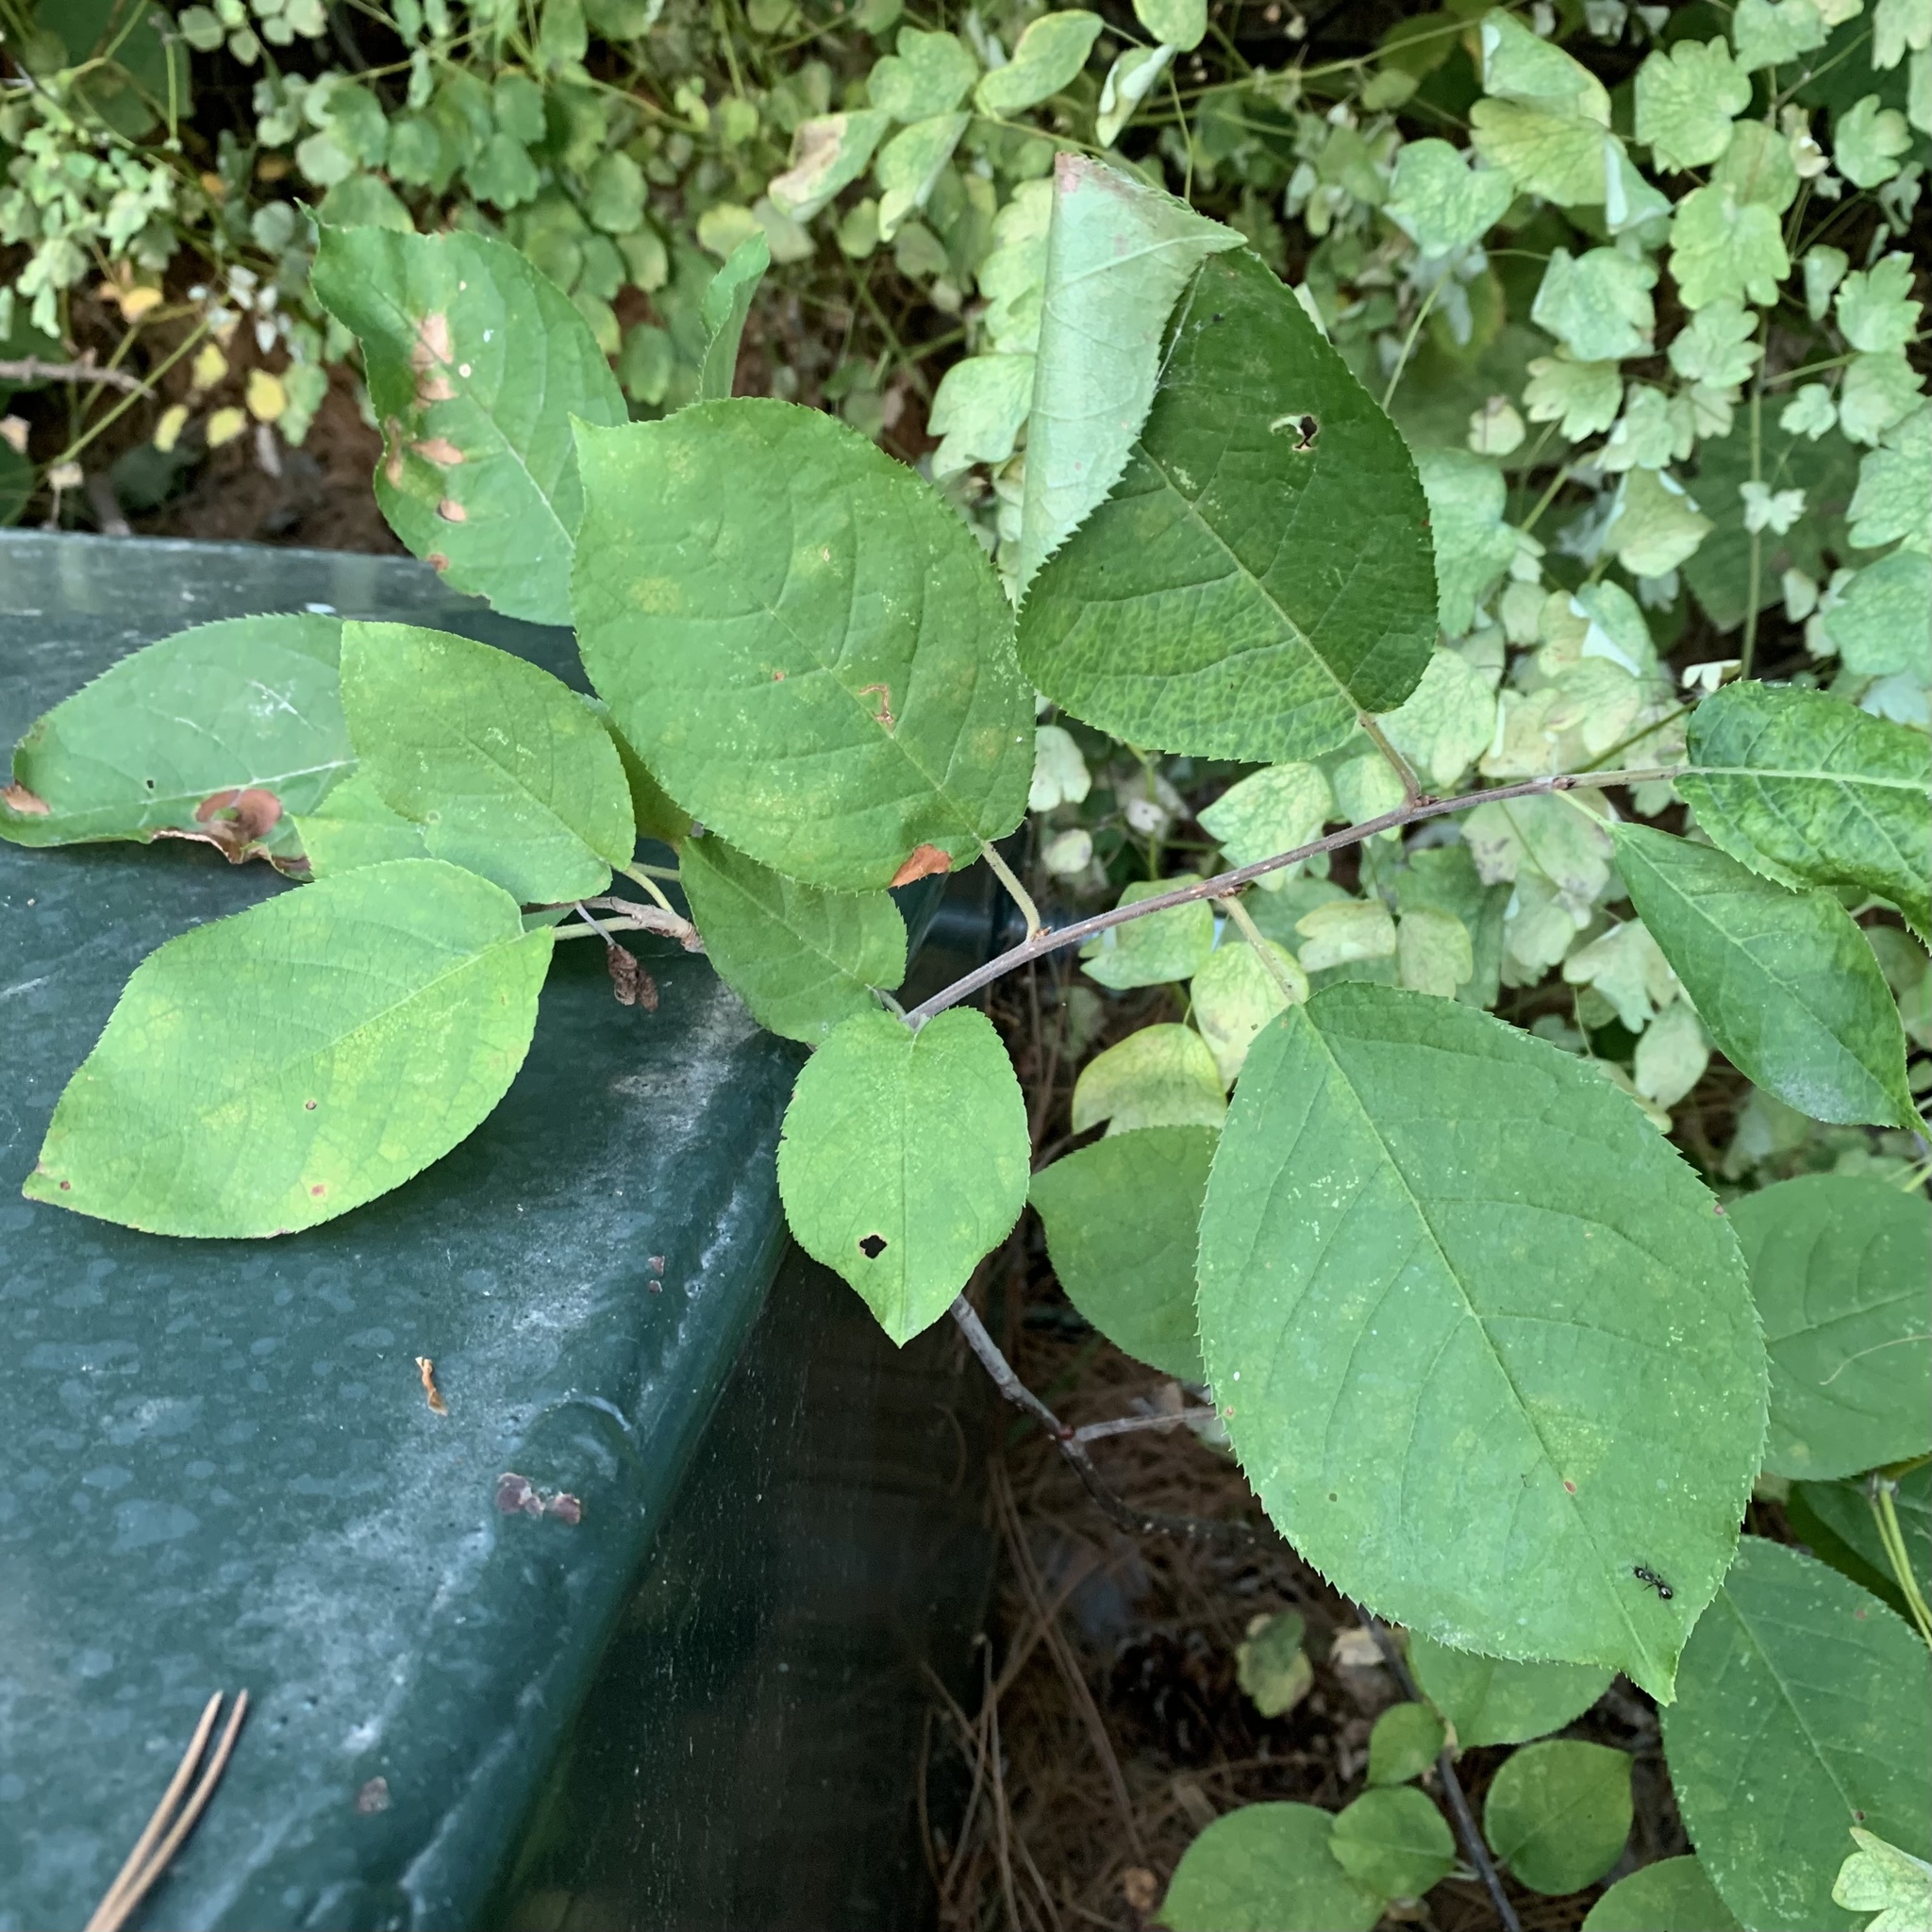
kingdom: Plantae
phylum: Tracheophyta
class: Magnoliopsida
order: Rosales
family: Rosaceae
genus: Prunus
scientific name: Prunus virginiana
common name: Chokecherry
